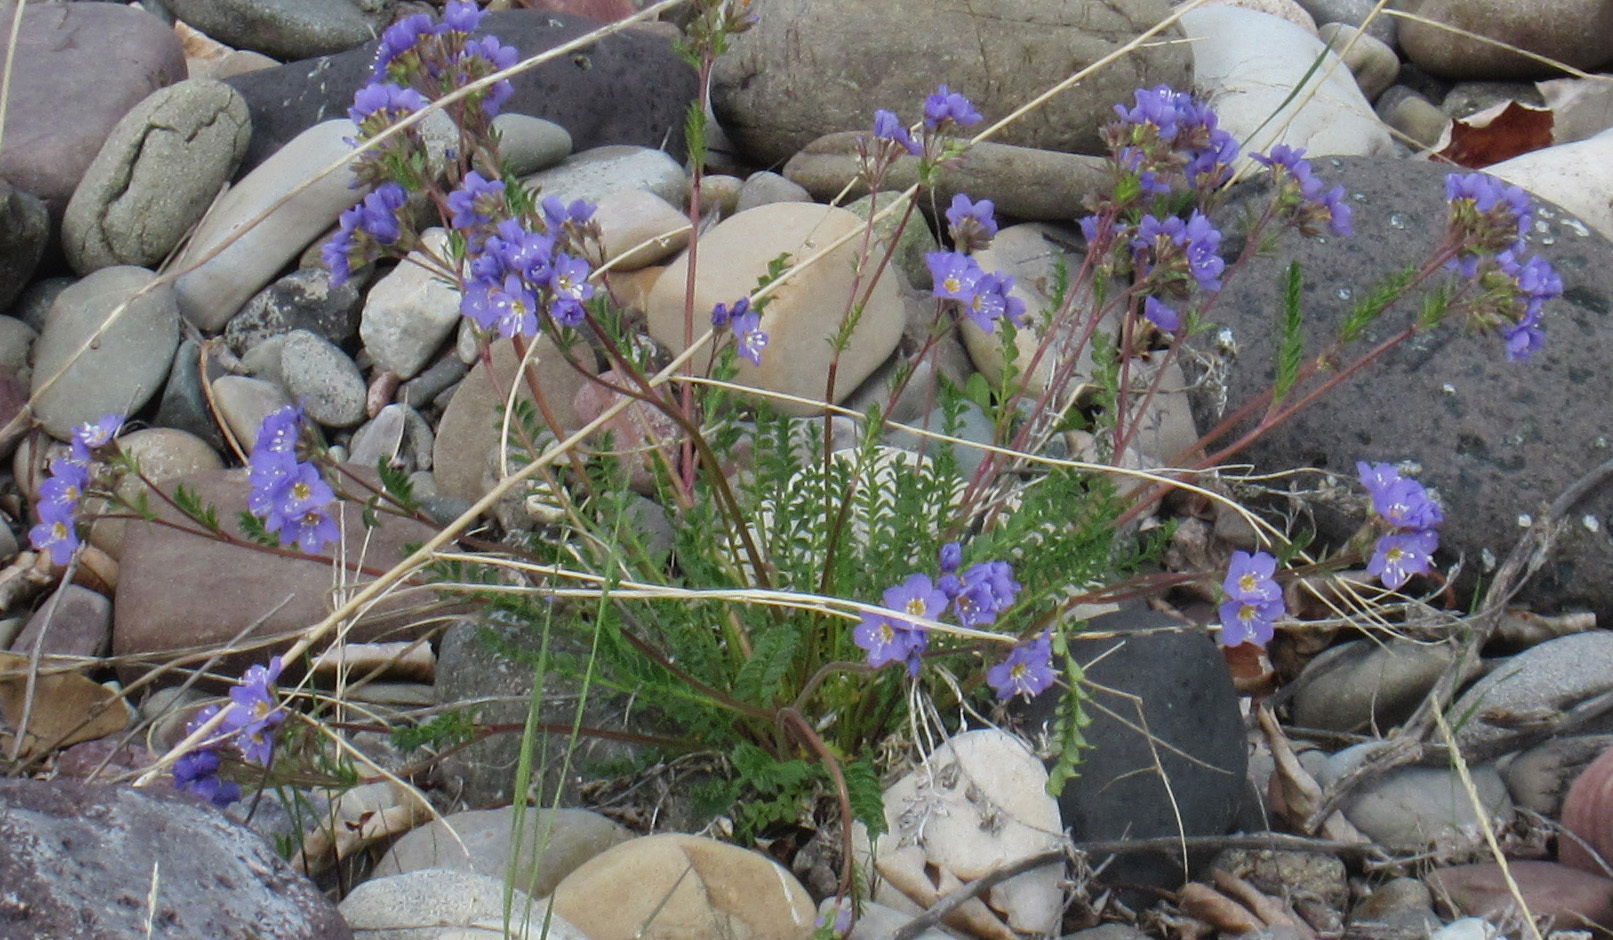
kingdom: Plantae
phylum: Tracheophyta
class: Magnoliopsida
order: Ericales
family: Polemoniaceae
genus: Polemonium
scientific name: Polemonium pulcherrimum
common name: Short jacob's-ladder
